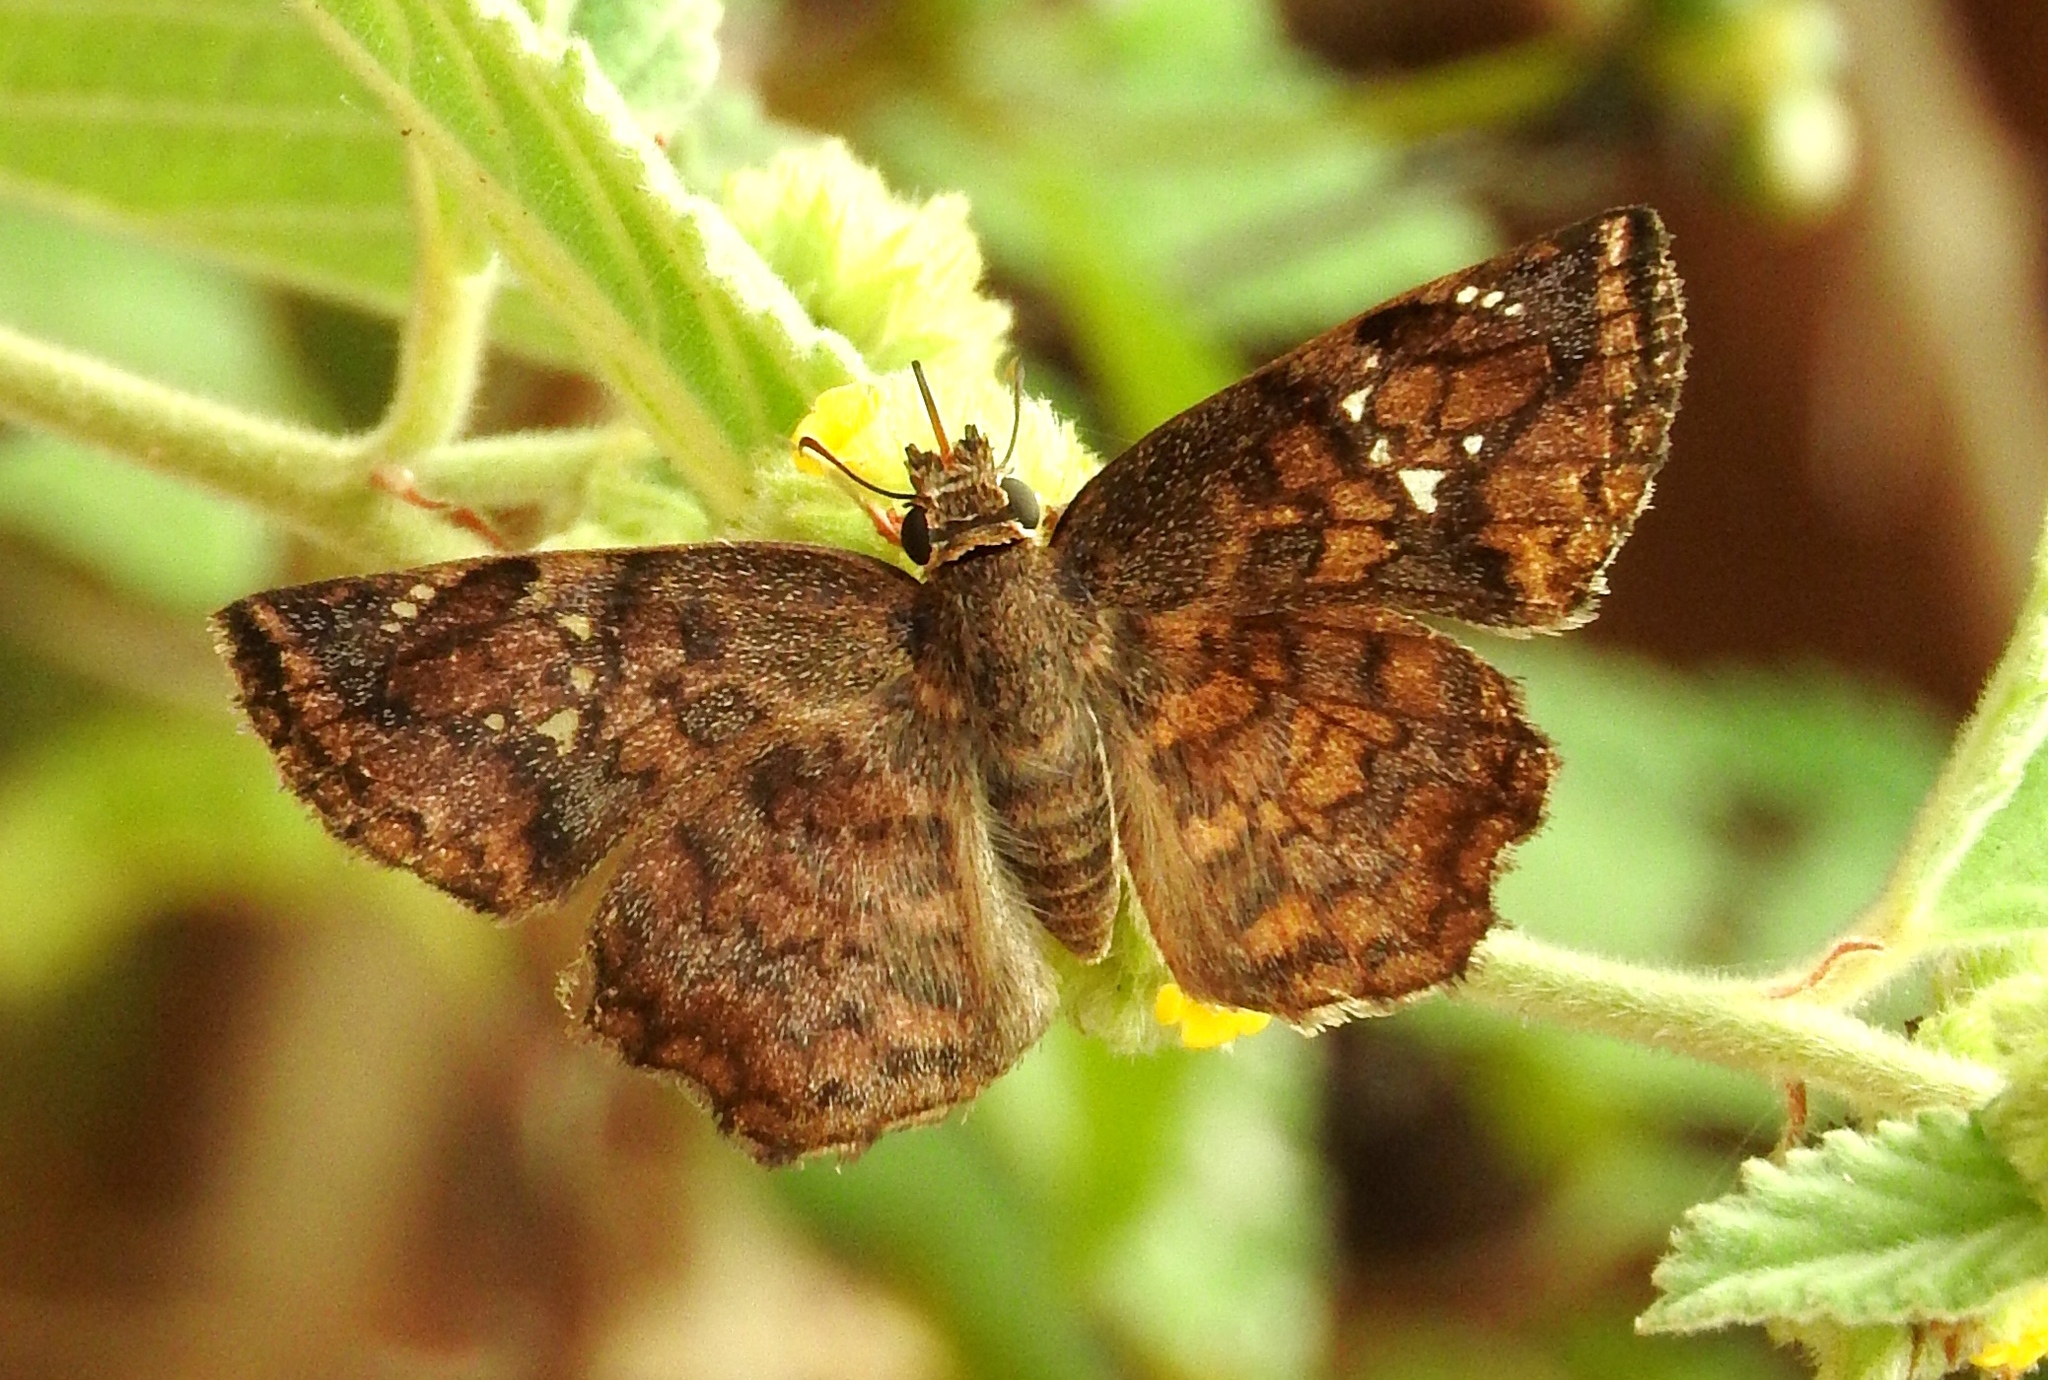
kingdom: Animalia
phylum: Arthropoda
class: Insecta
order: Lepidoptera
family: Hesperiidae
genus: Antigonus
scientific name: Antigonus erosus
